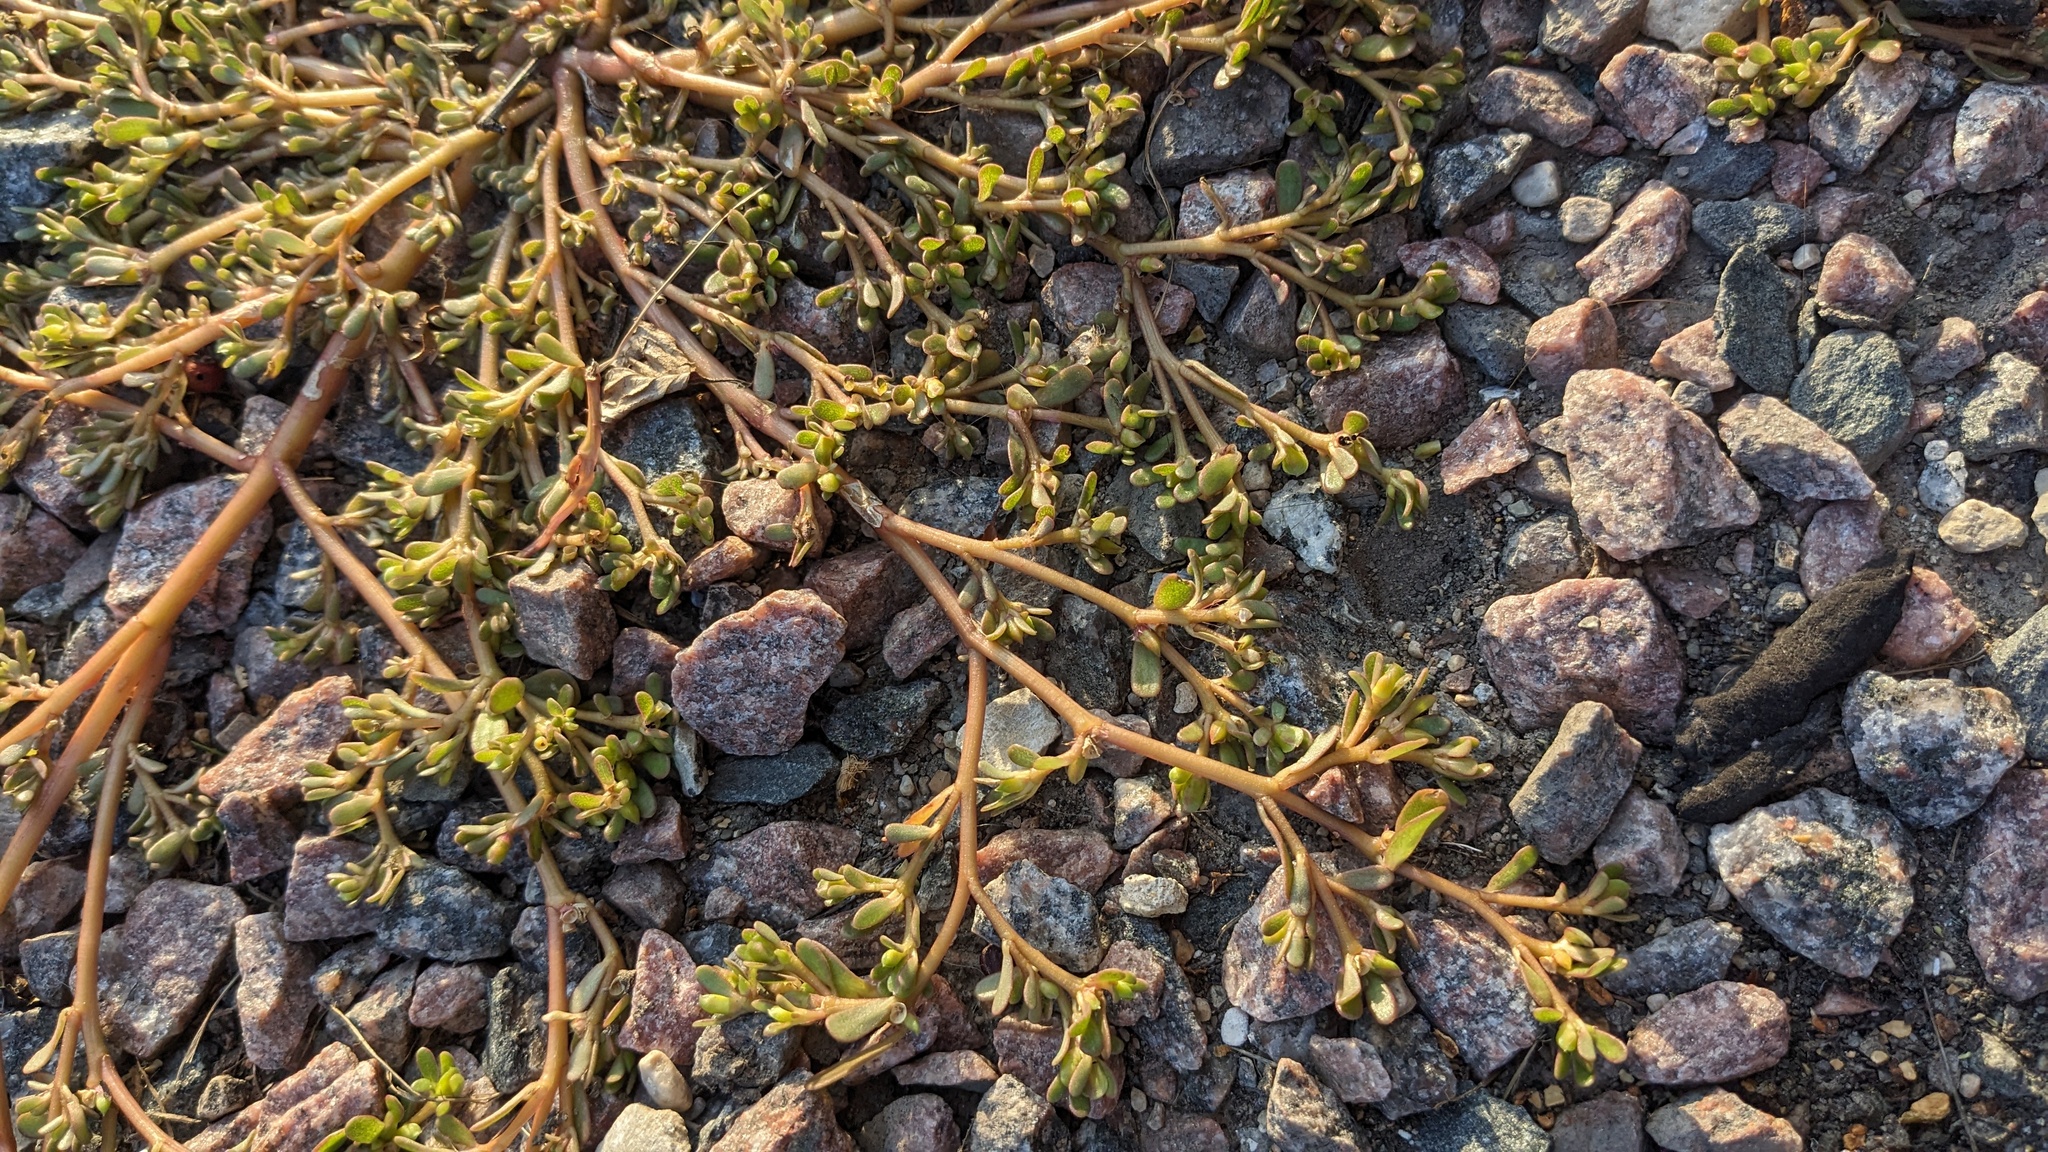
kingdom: Plantae
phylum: Tracheophyta
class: Magnoliopsida
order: Caryophyllales
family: Portulacaceae
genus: Portulaca
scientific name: Portulaca oleracea
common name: Common purslane
